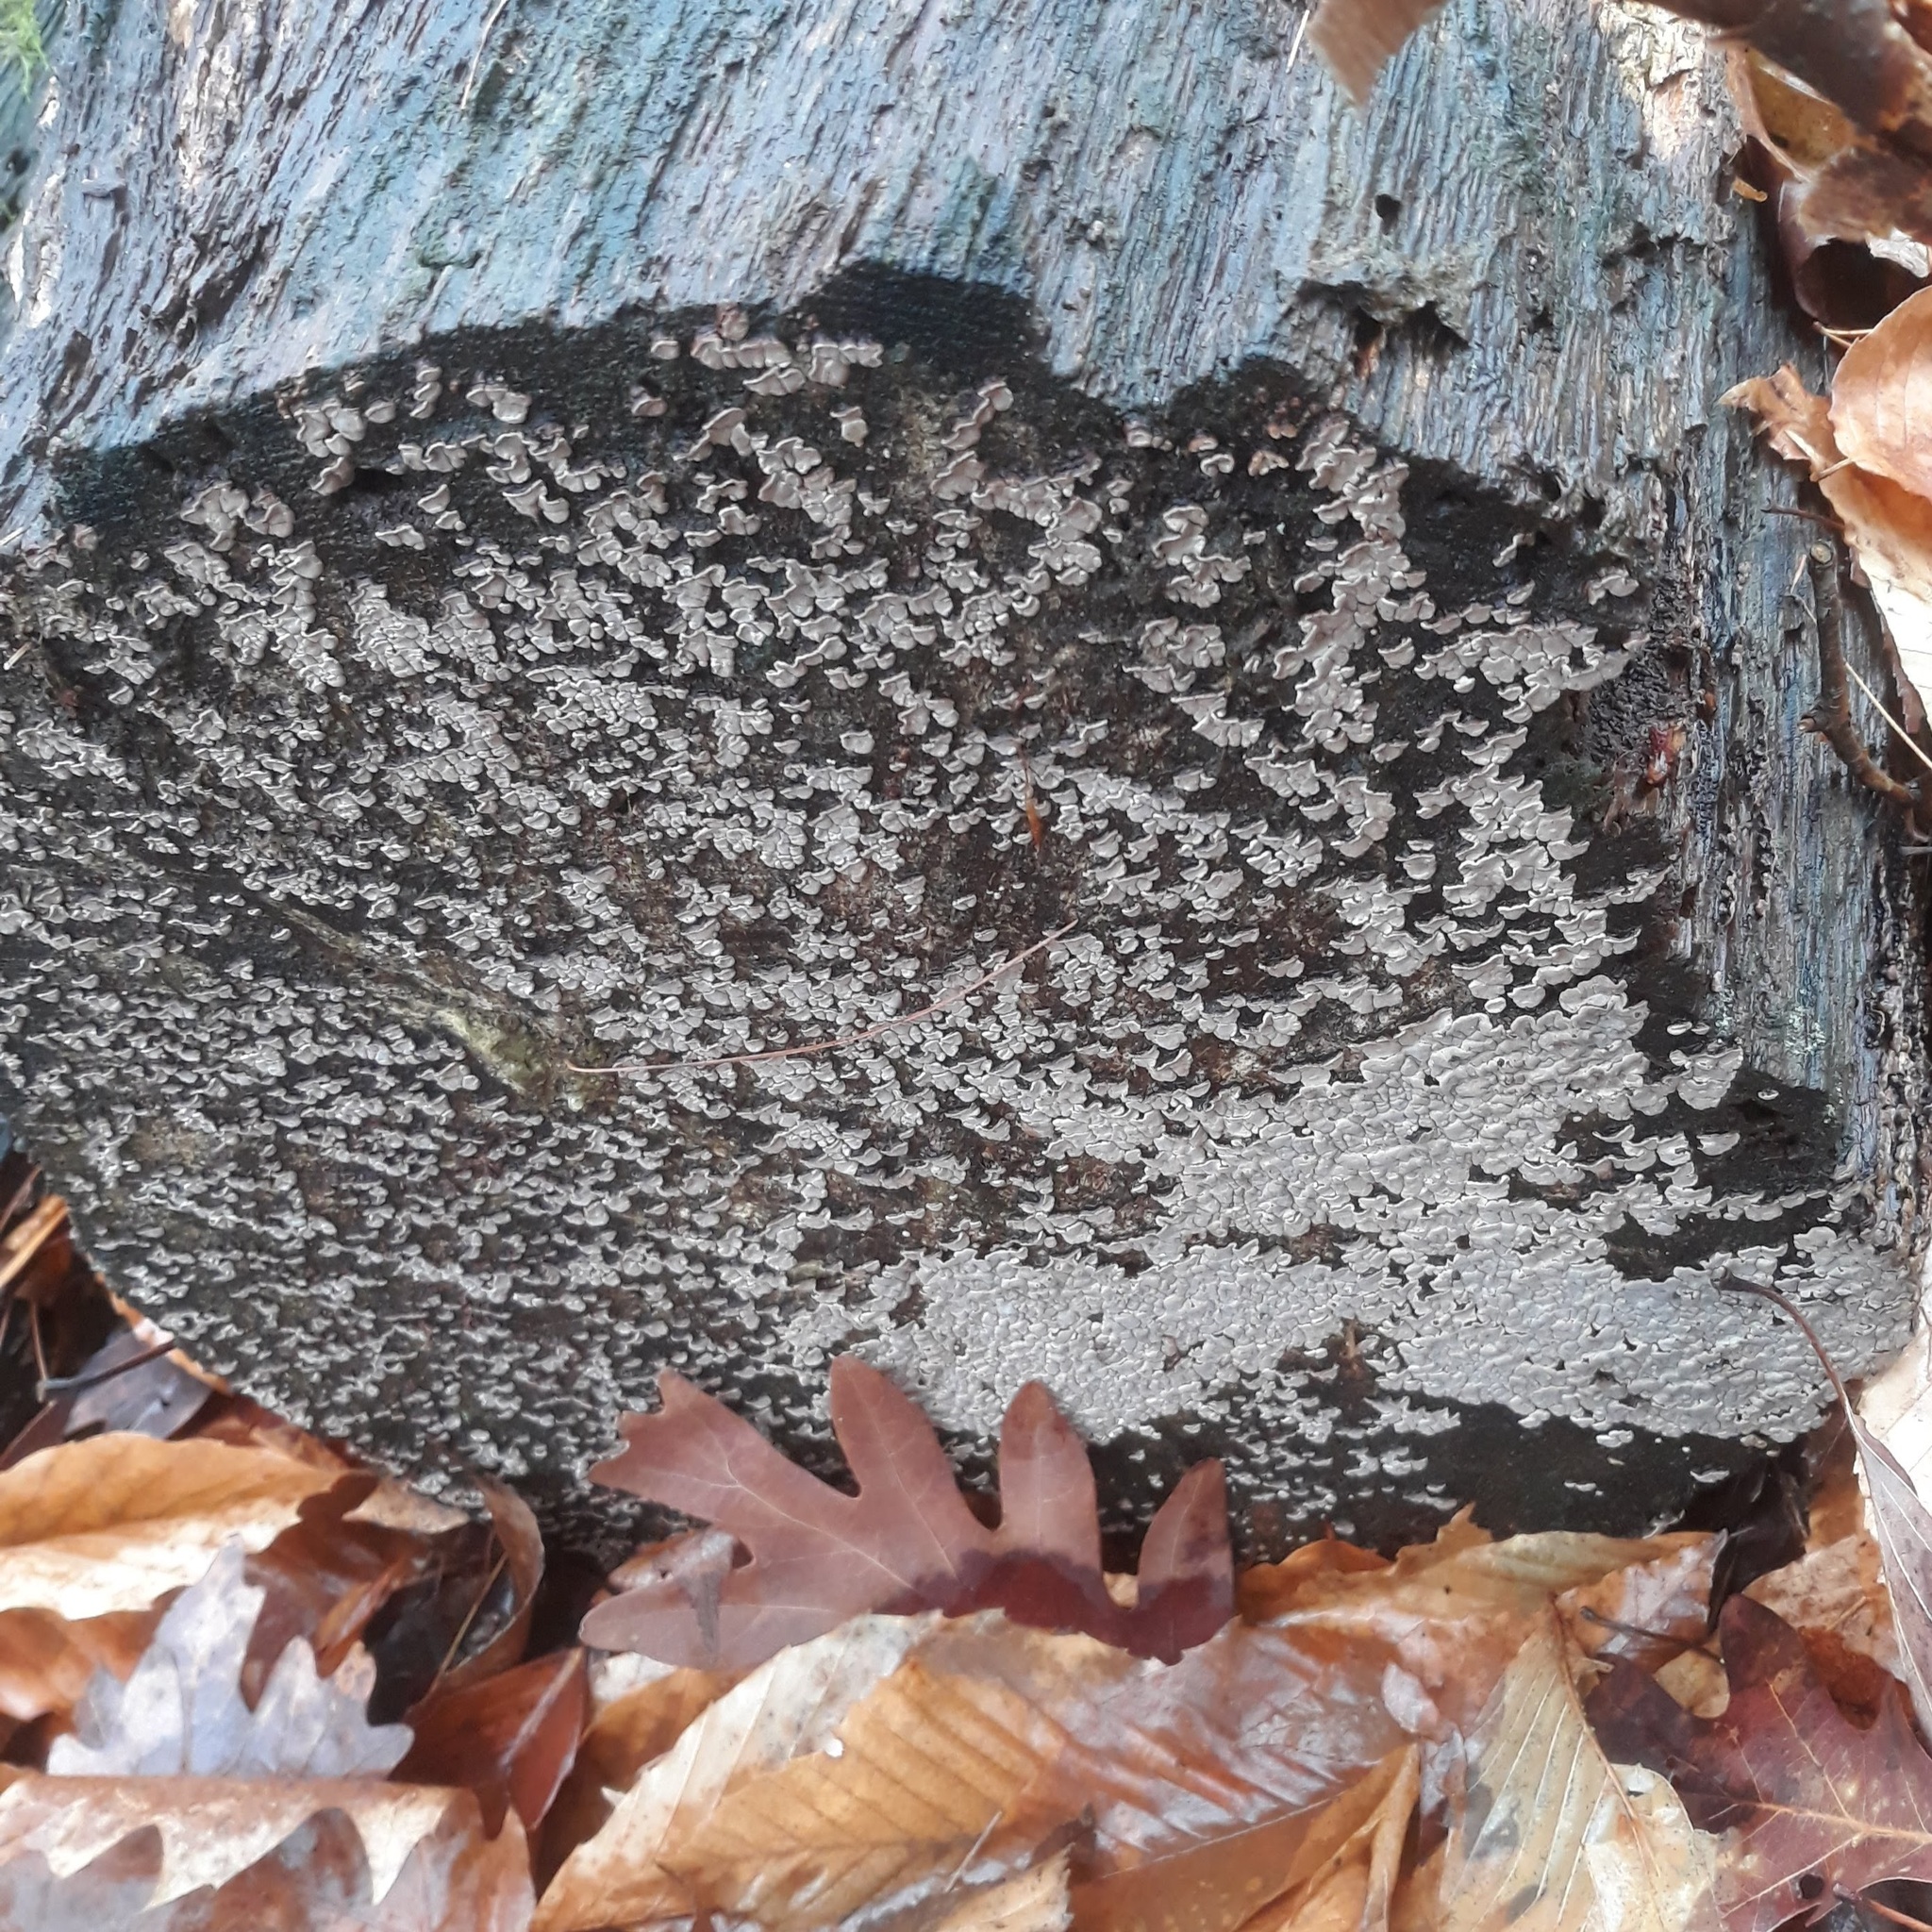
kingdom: Fungi
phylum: Basidiomycota
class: Agaricomycetes
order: Russulales
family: Stereaceae
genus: Xylobolus
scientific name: Xylobolus frustulatus
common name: Ceramic parchment
